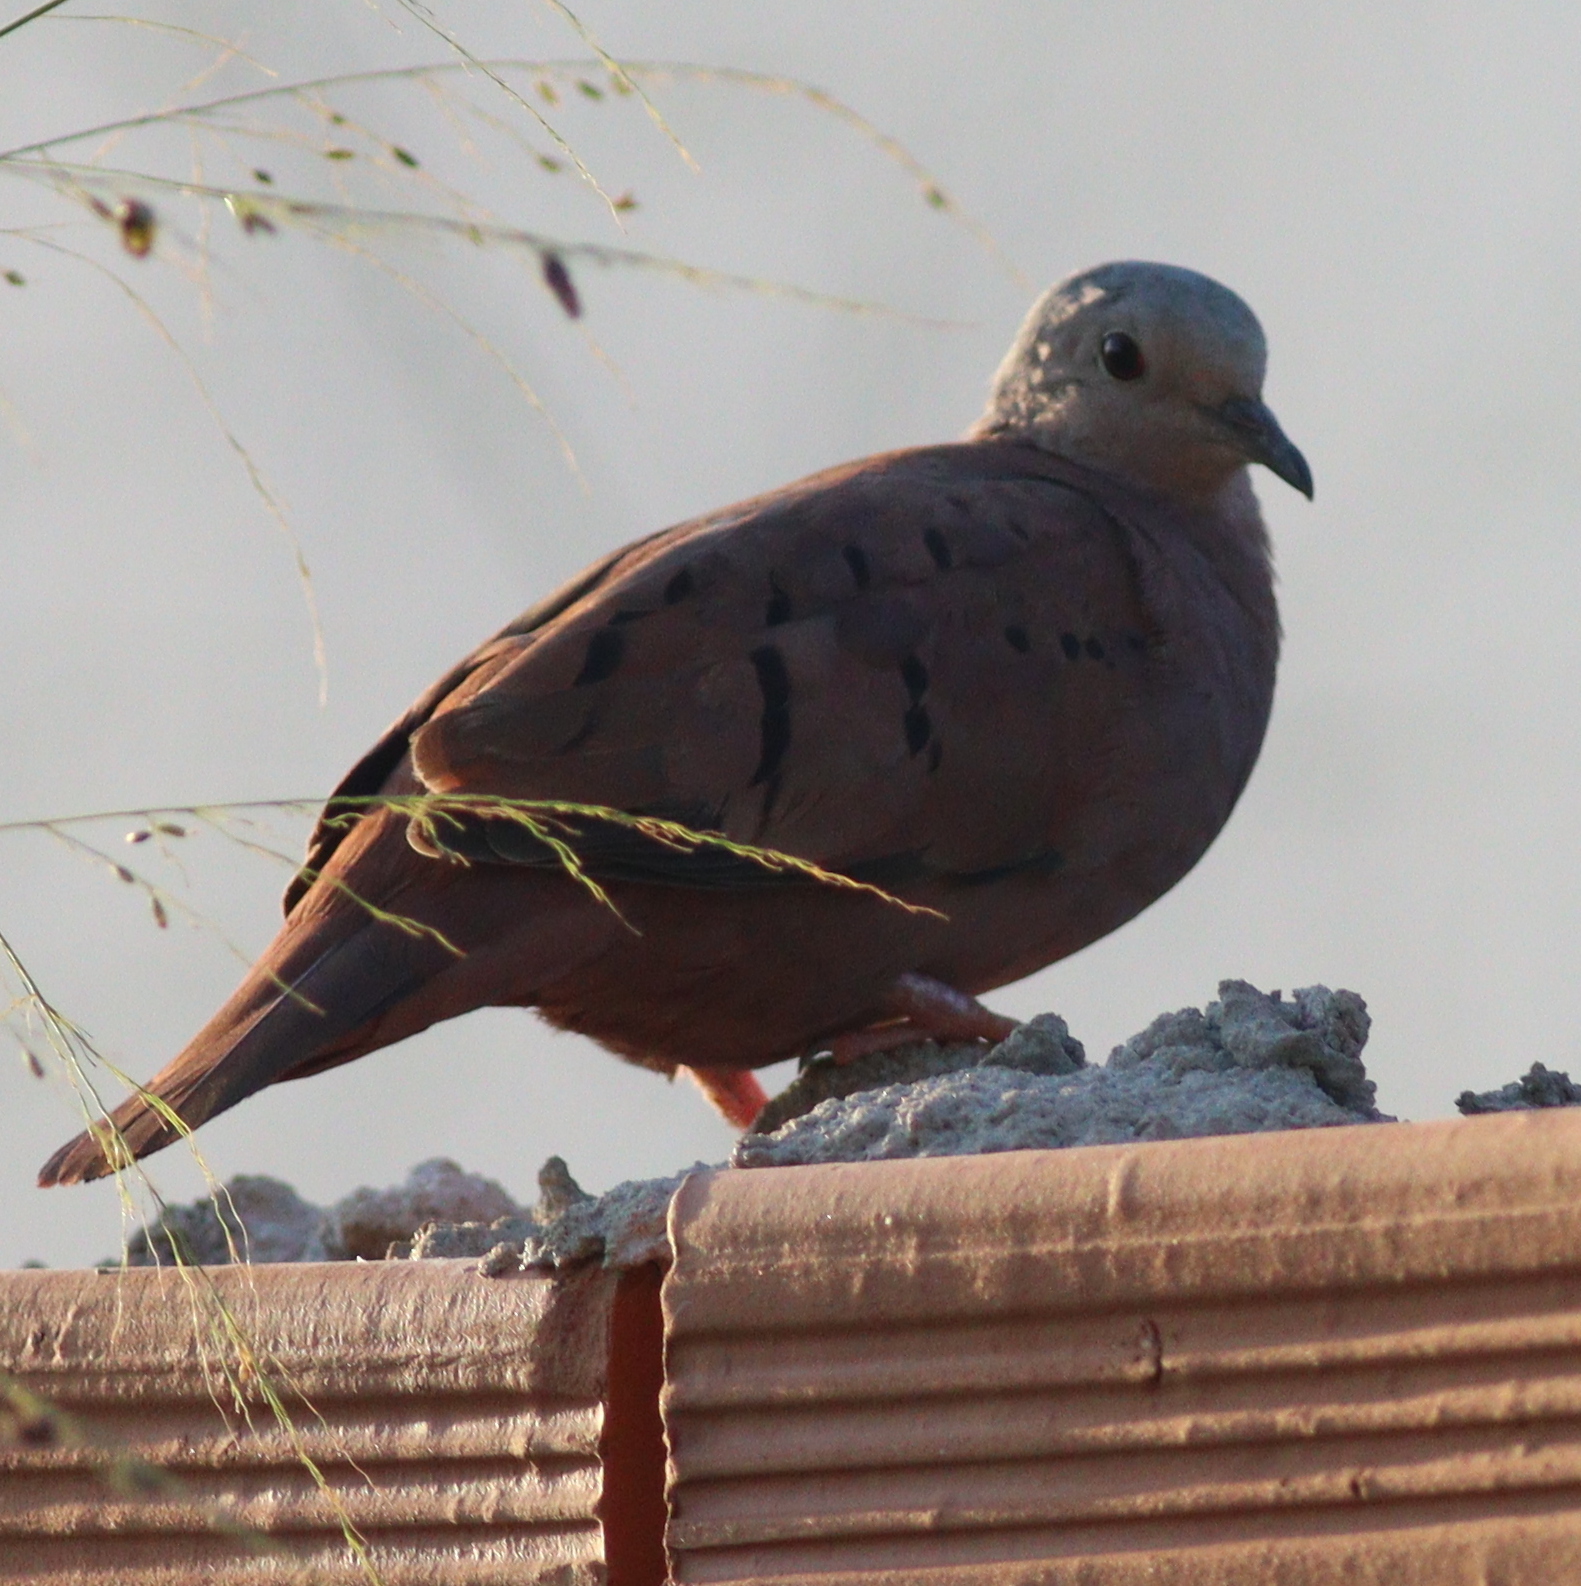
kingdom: Animalia
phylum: Chordata
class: Aves
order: Columbiformes
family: Columbidae
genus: Columbina
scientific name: Columbina talpacoti
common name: Ruddy ground dove
